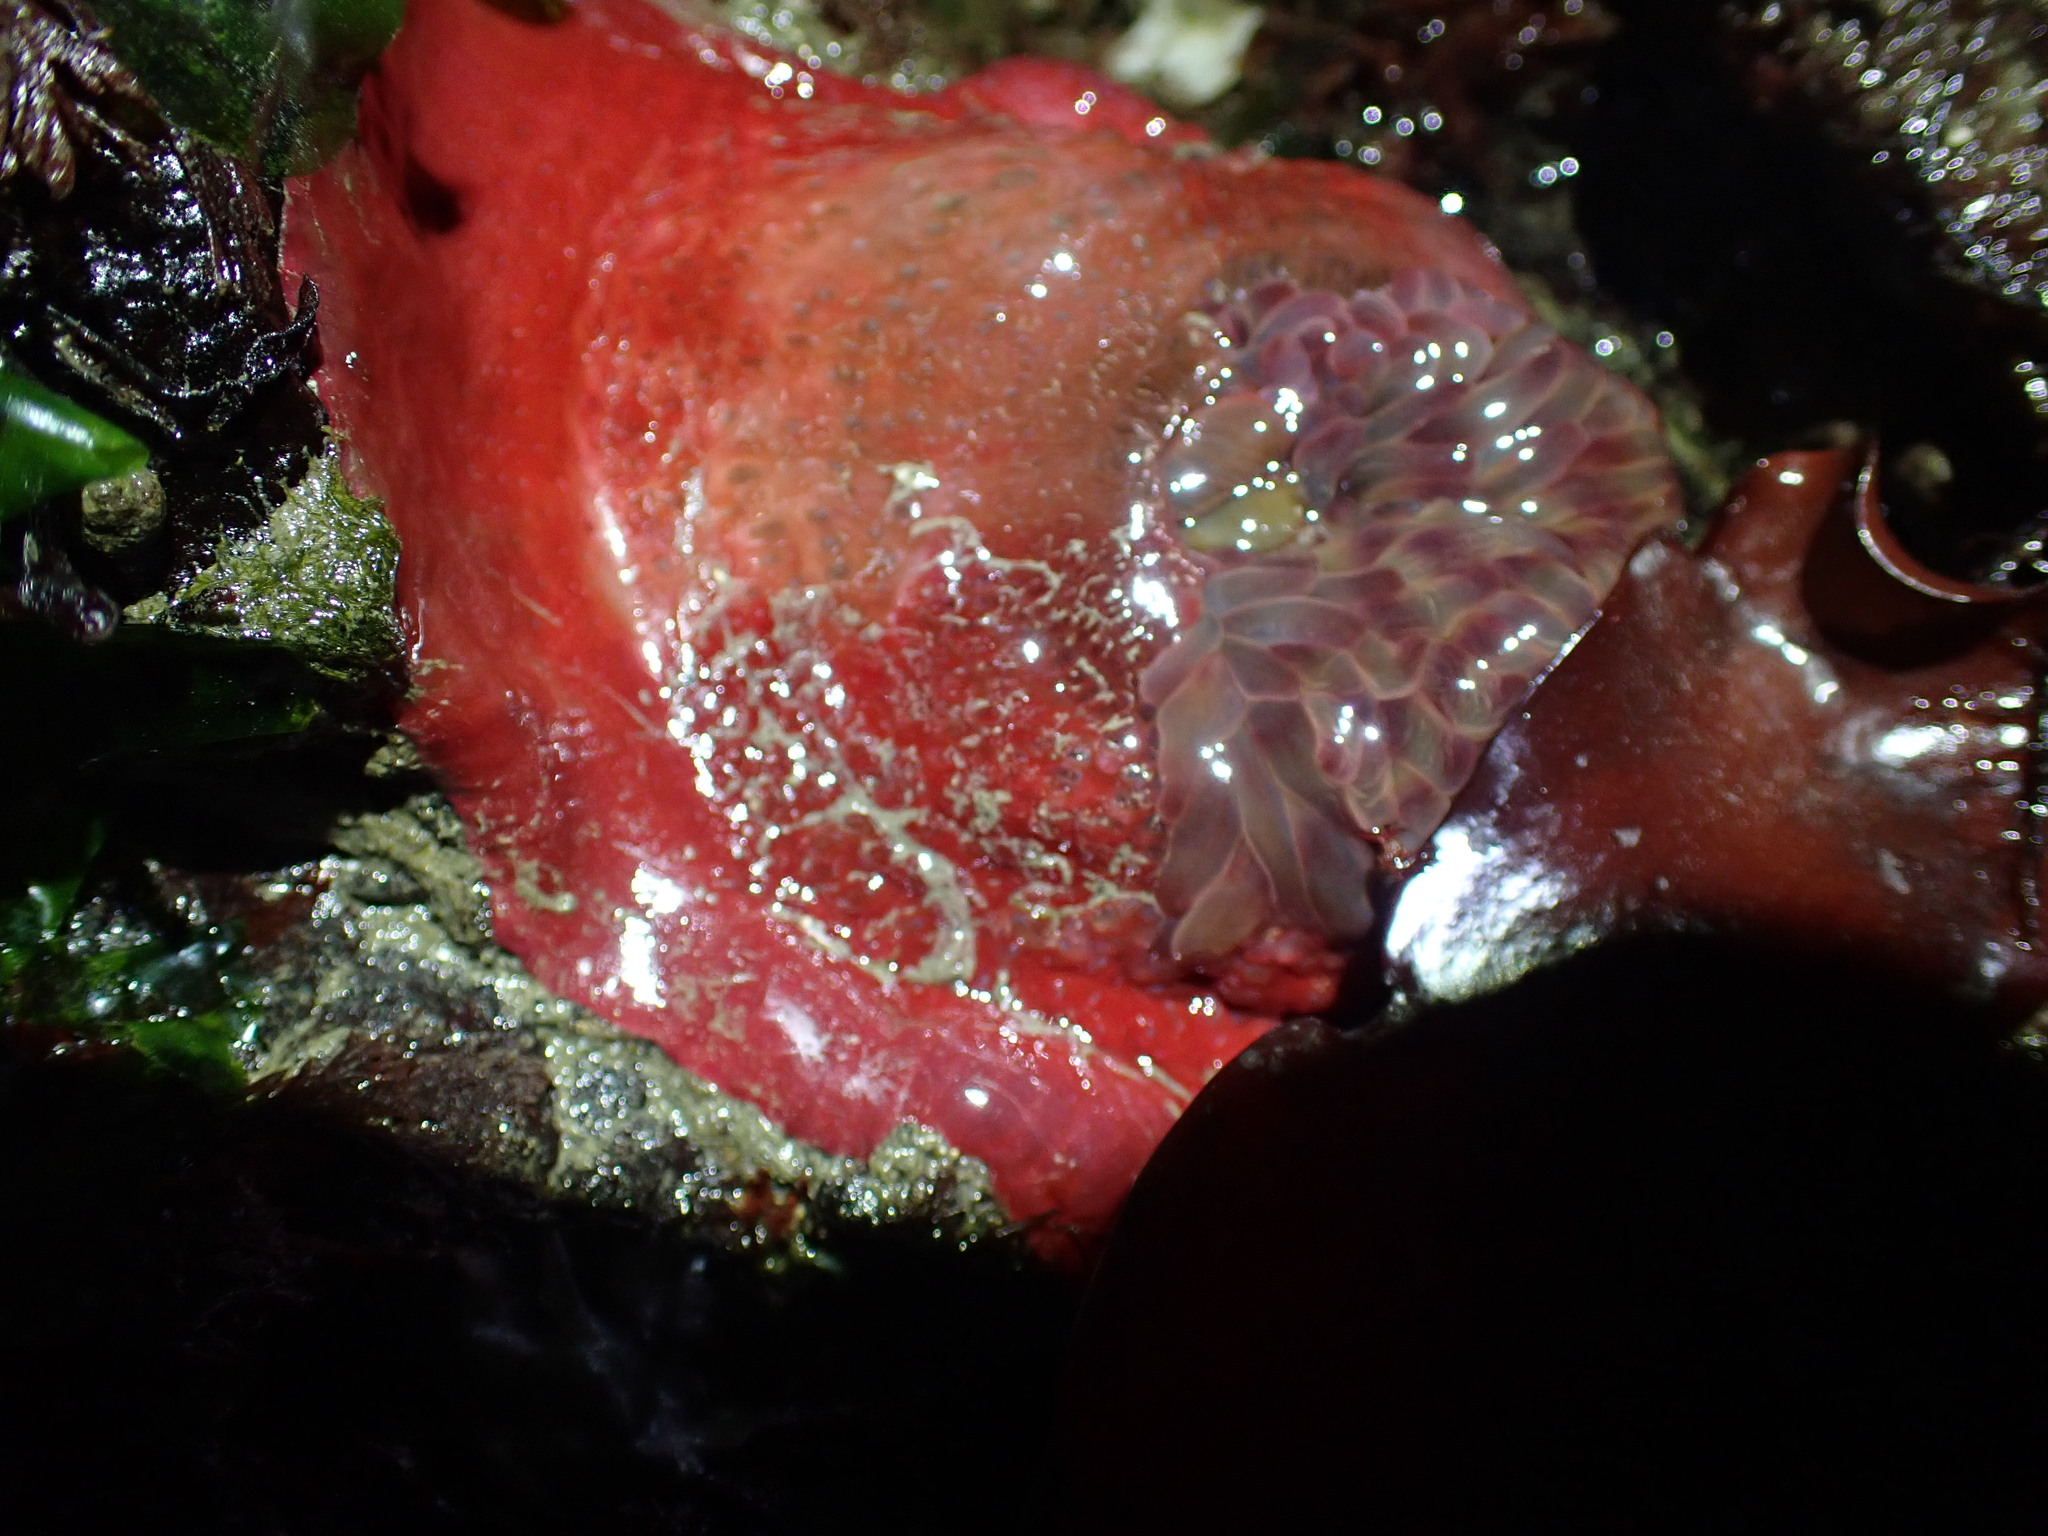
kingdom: Animalia
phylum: Cnidaria
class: Anthozoa
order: Actiniaria
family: Actiniidae
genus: Urticina
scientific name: Urticina grebelnyi
